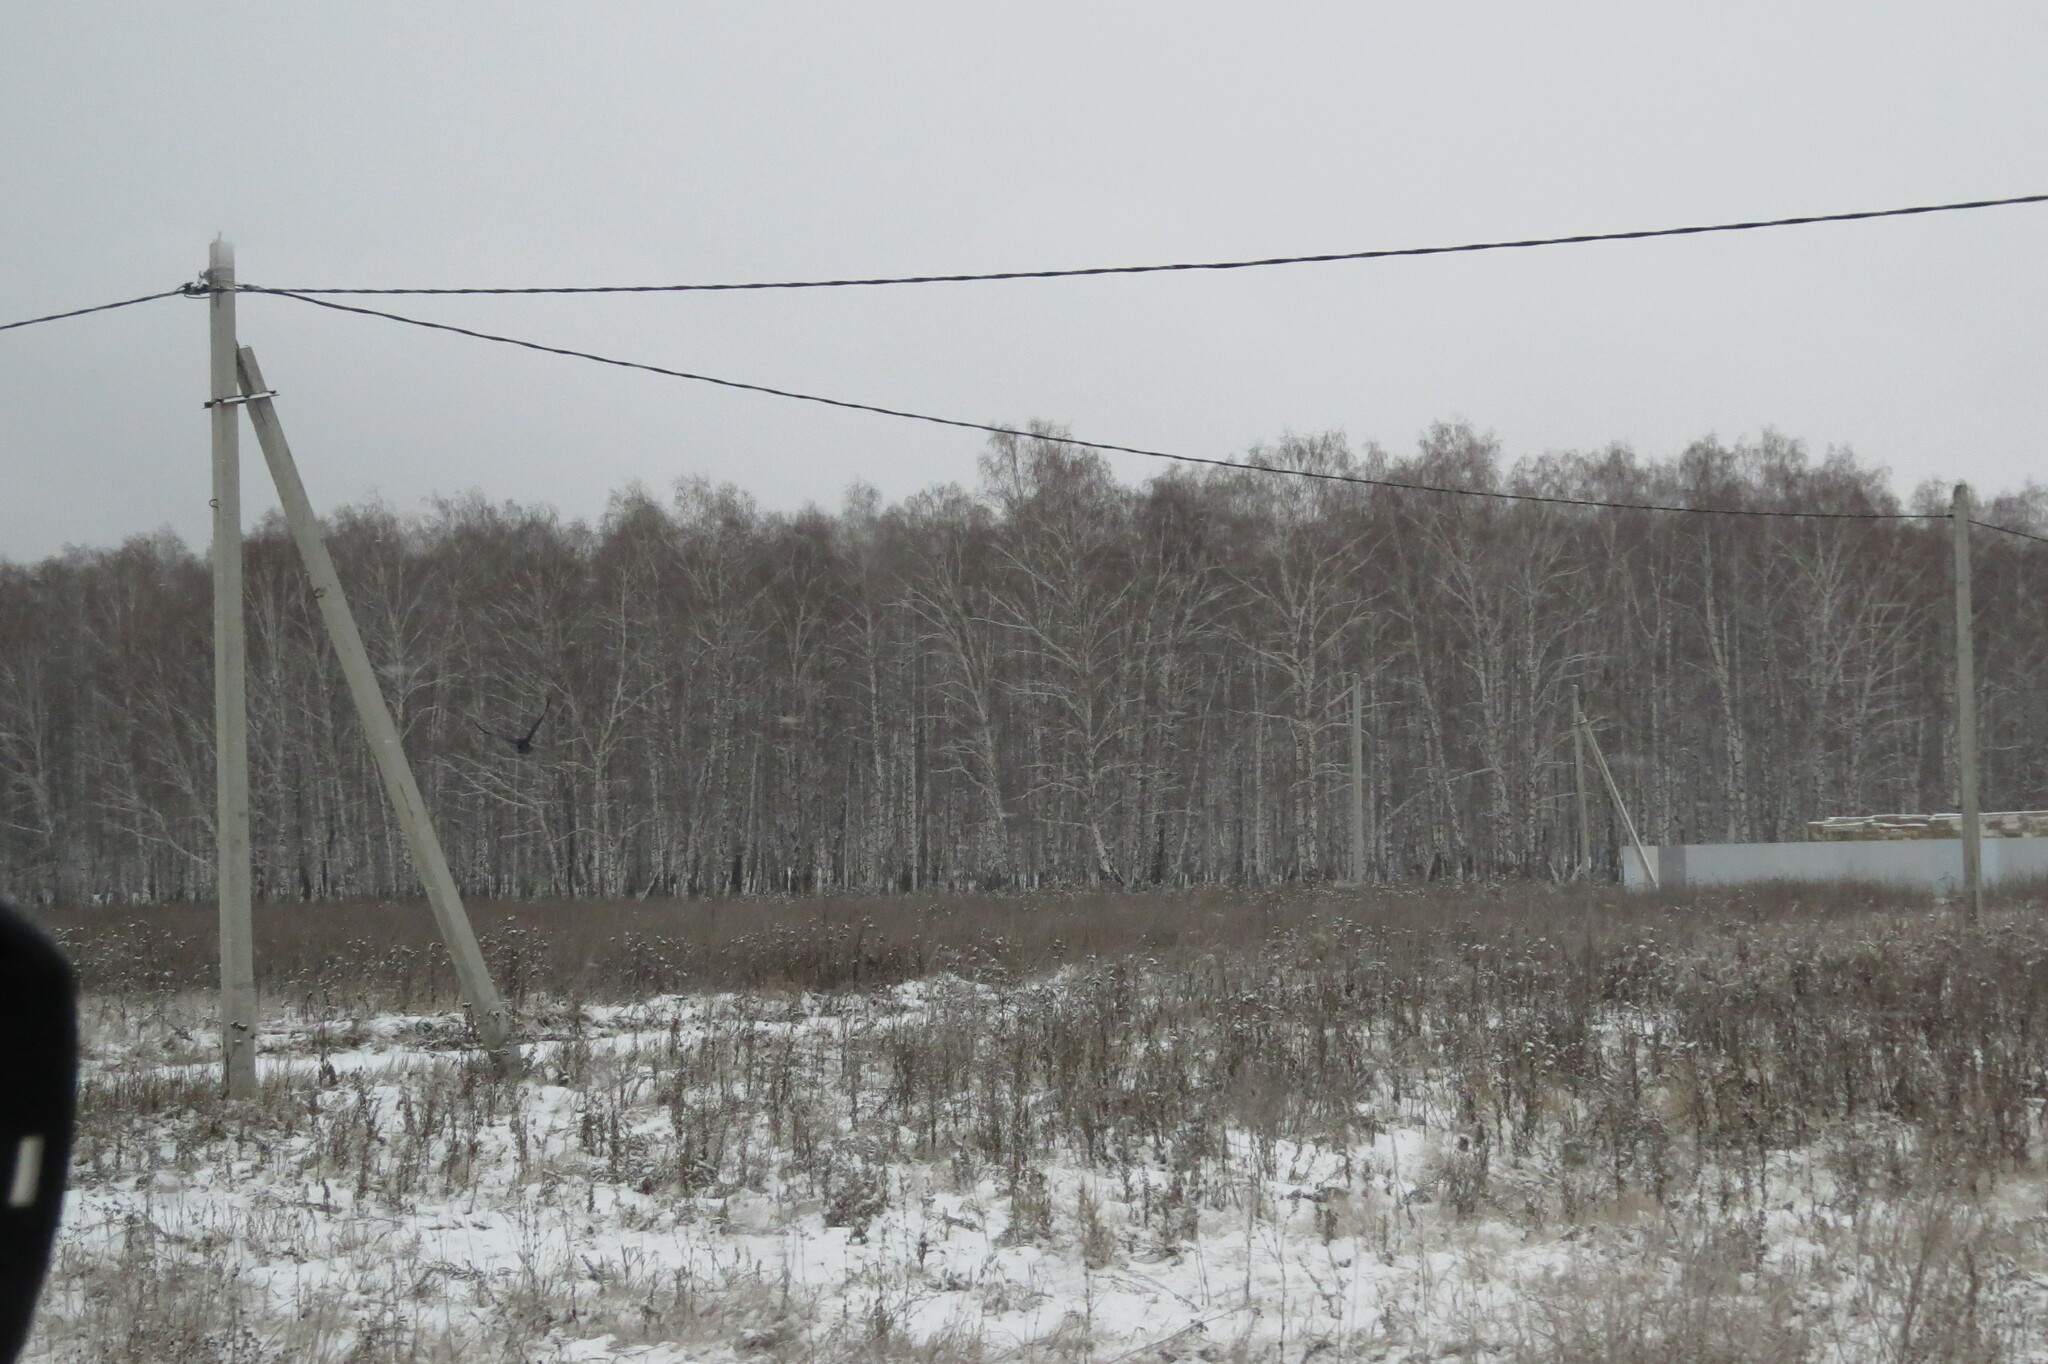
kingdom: Animalia
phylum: Chordata
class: Aves
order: Passeriformes
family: Corvidae
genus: Corvus
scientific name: Corvus corax
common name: Common raven
